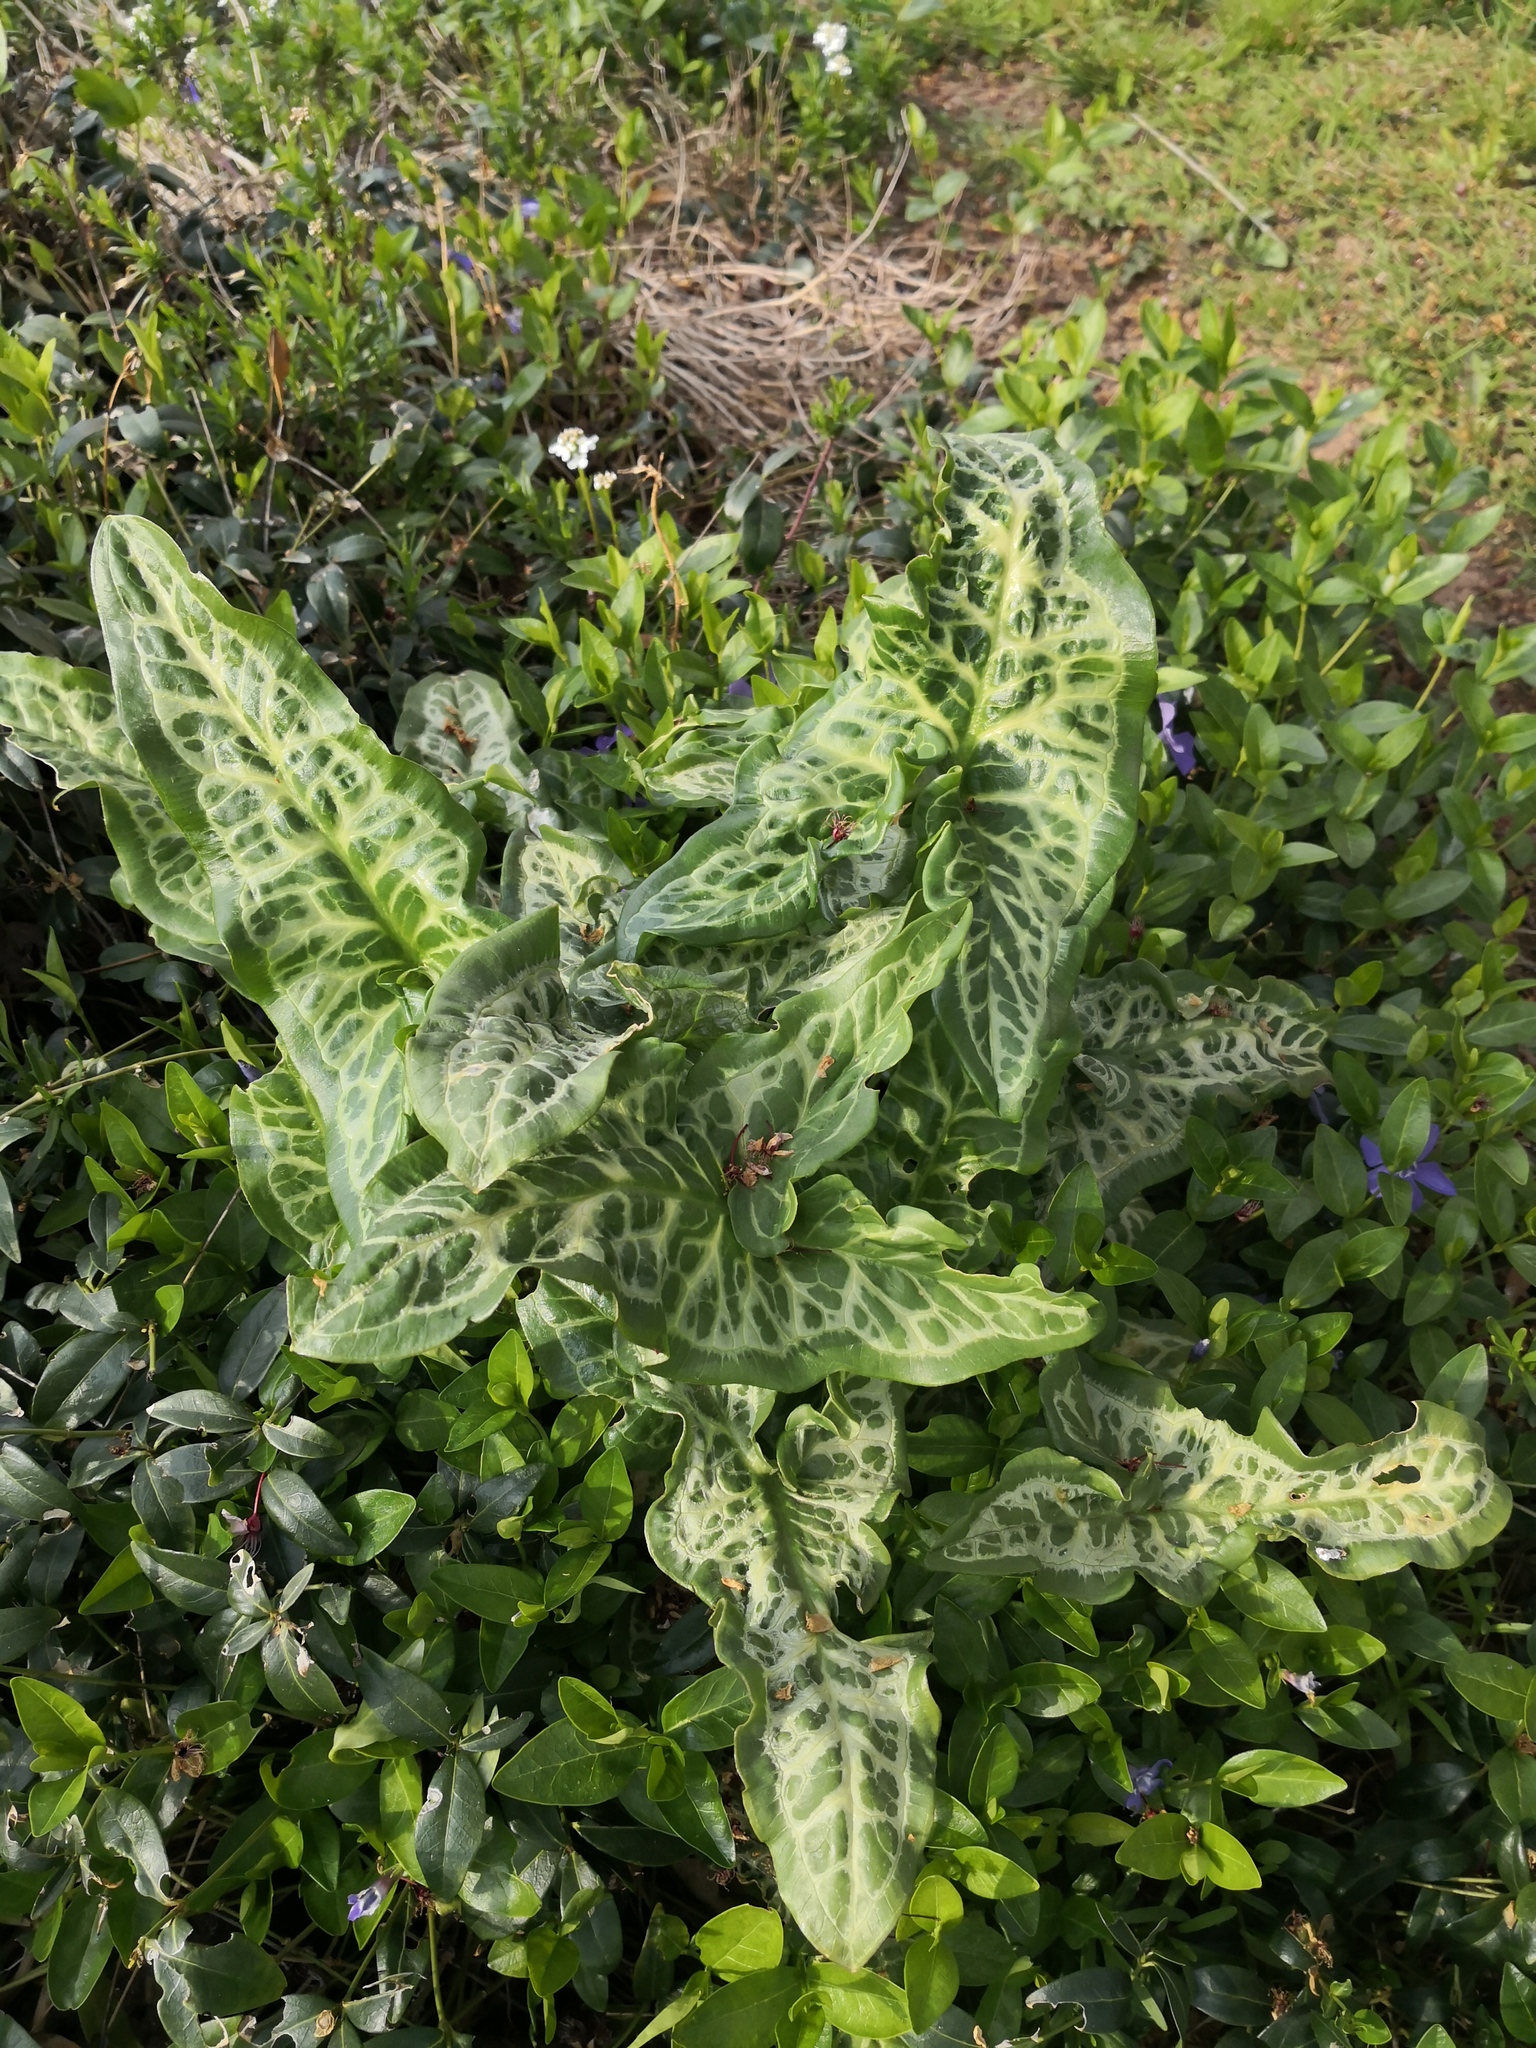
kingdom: Plantae
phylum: Tracheophyta
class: Liliopsida
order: Alismatales
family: Araceae
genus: Arum
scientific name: Arum italicum
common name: Italian lords-and-ladies
